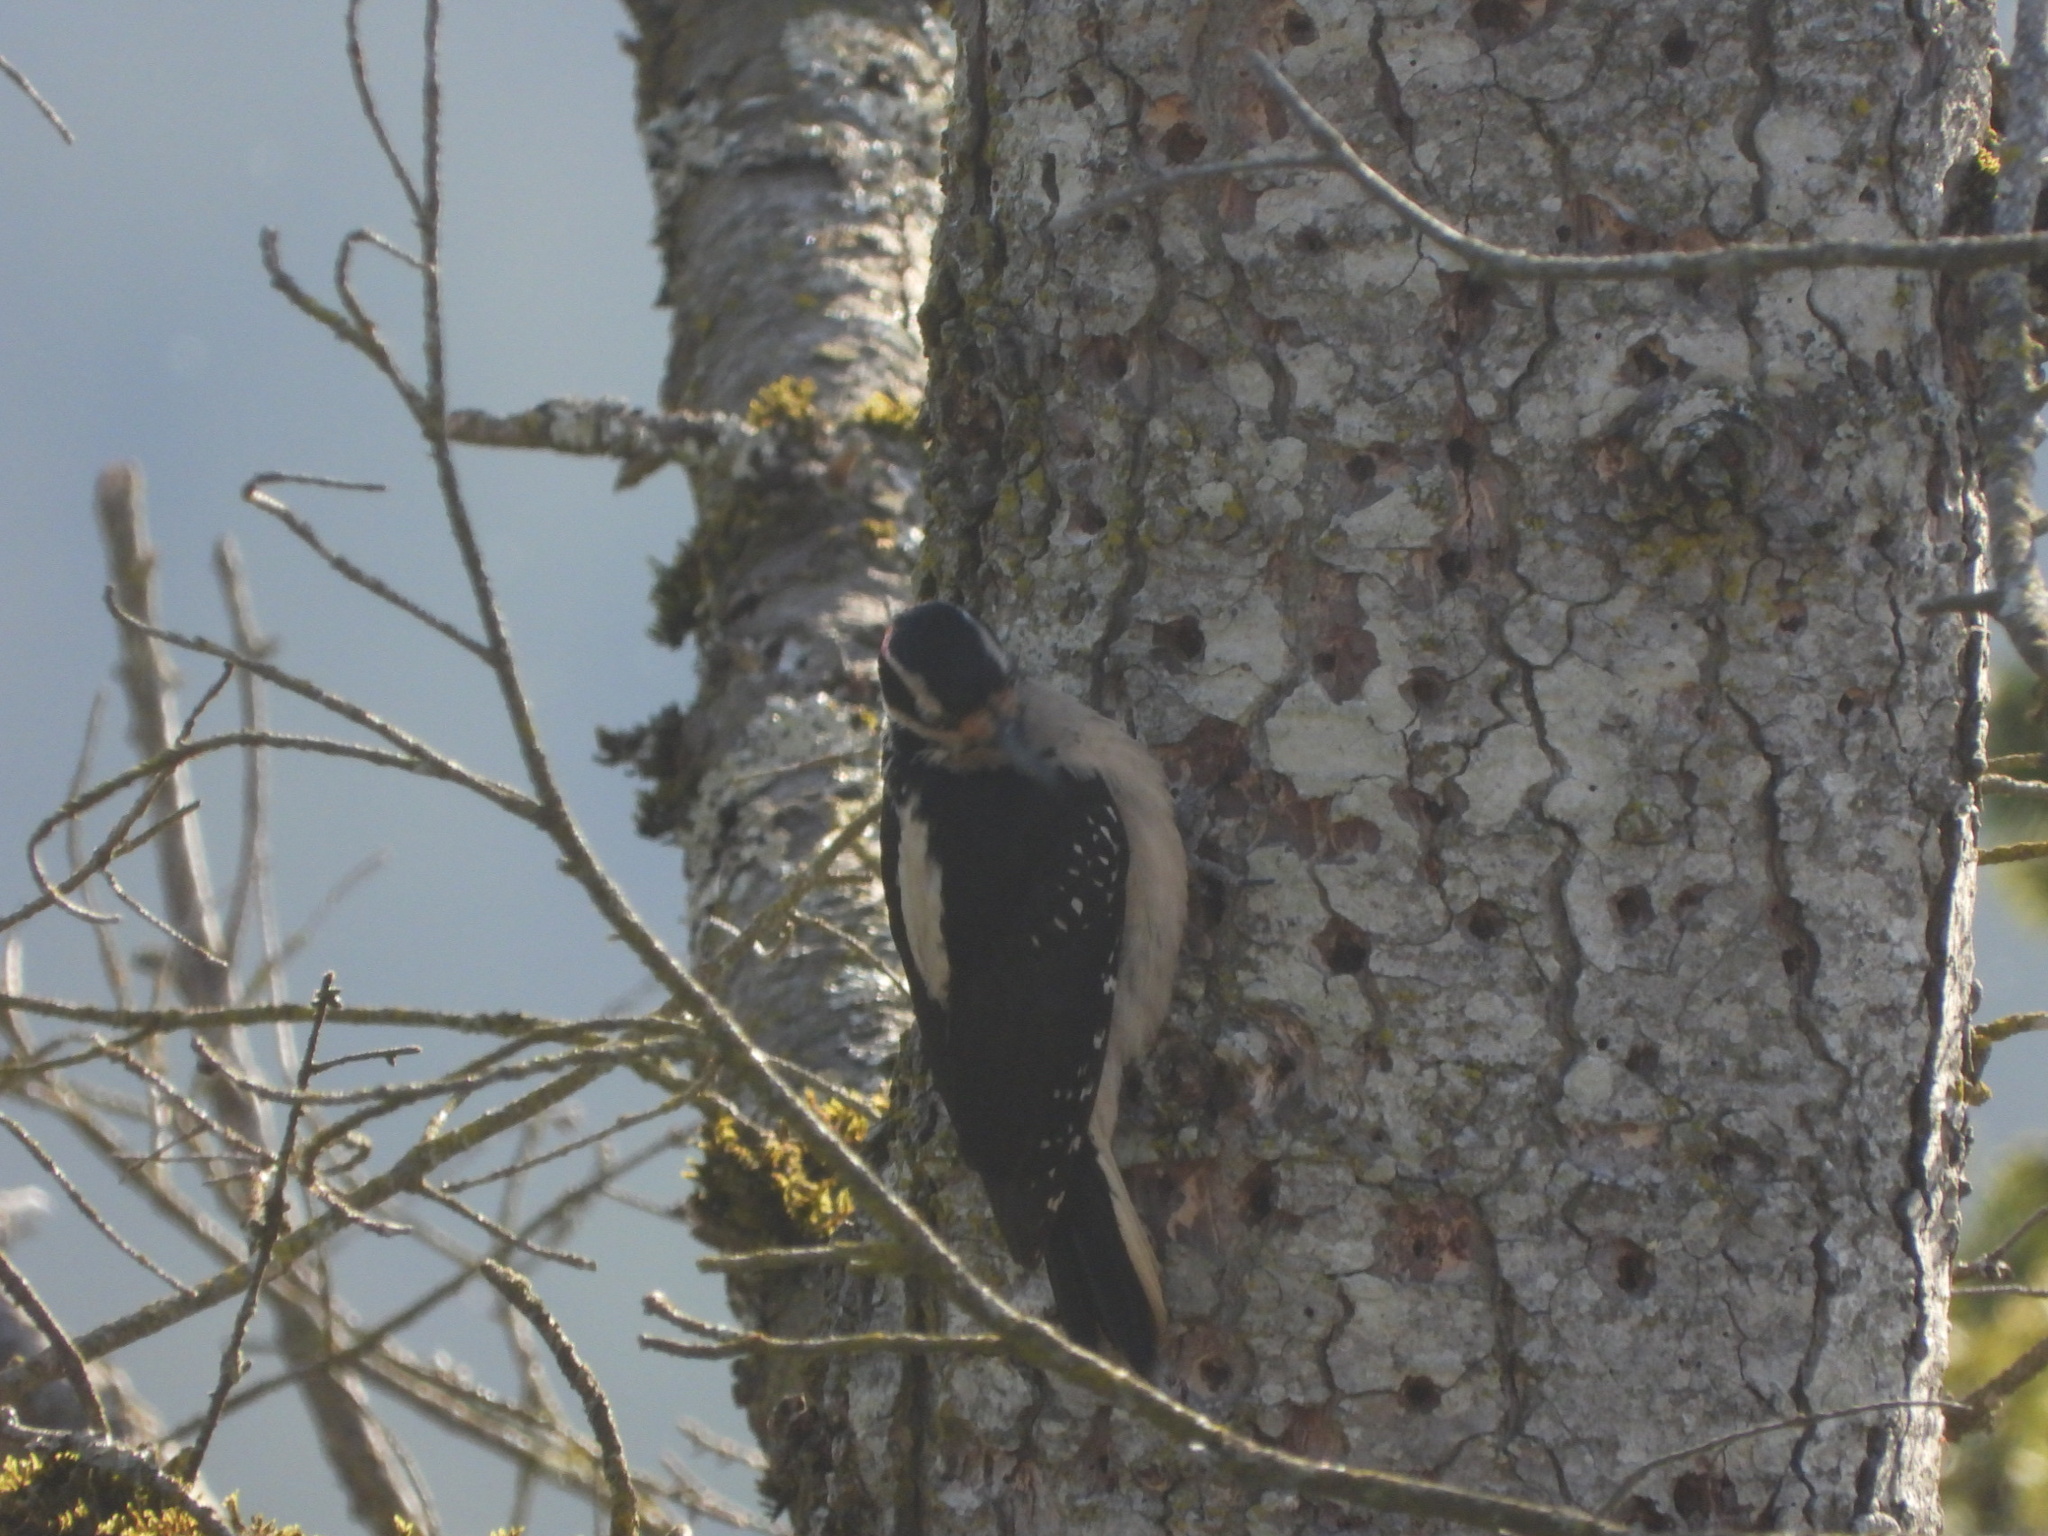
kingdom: Animalia
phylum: Chordata
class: Aves
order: Piciformes
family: Picidae
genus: Leuconotopicus
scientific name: Leuconotopicus villosus
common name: Hairy woodpecker
